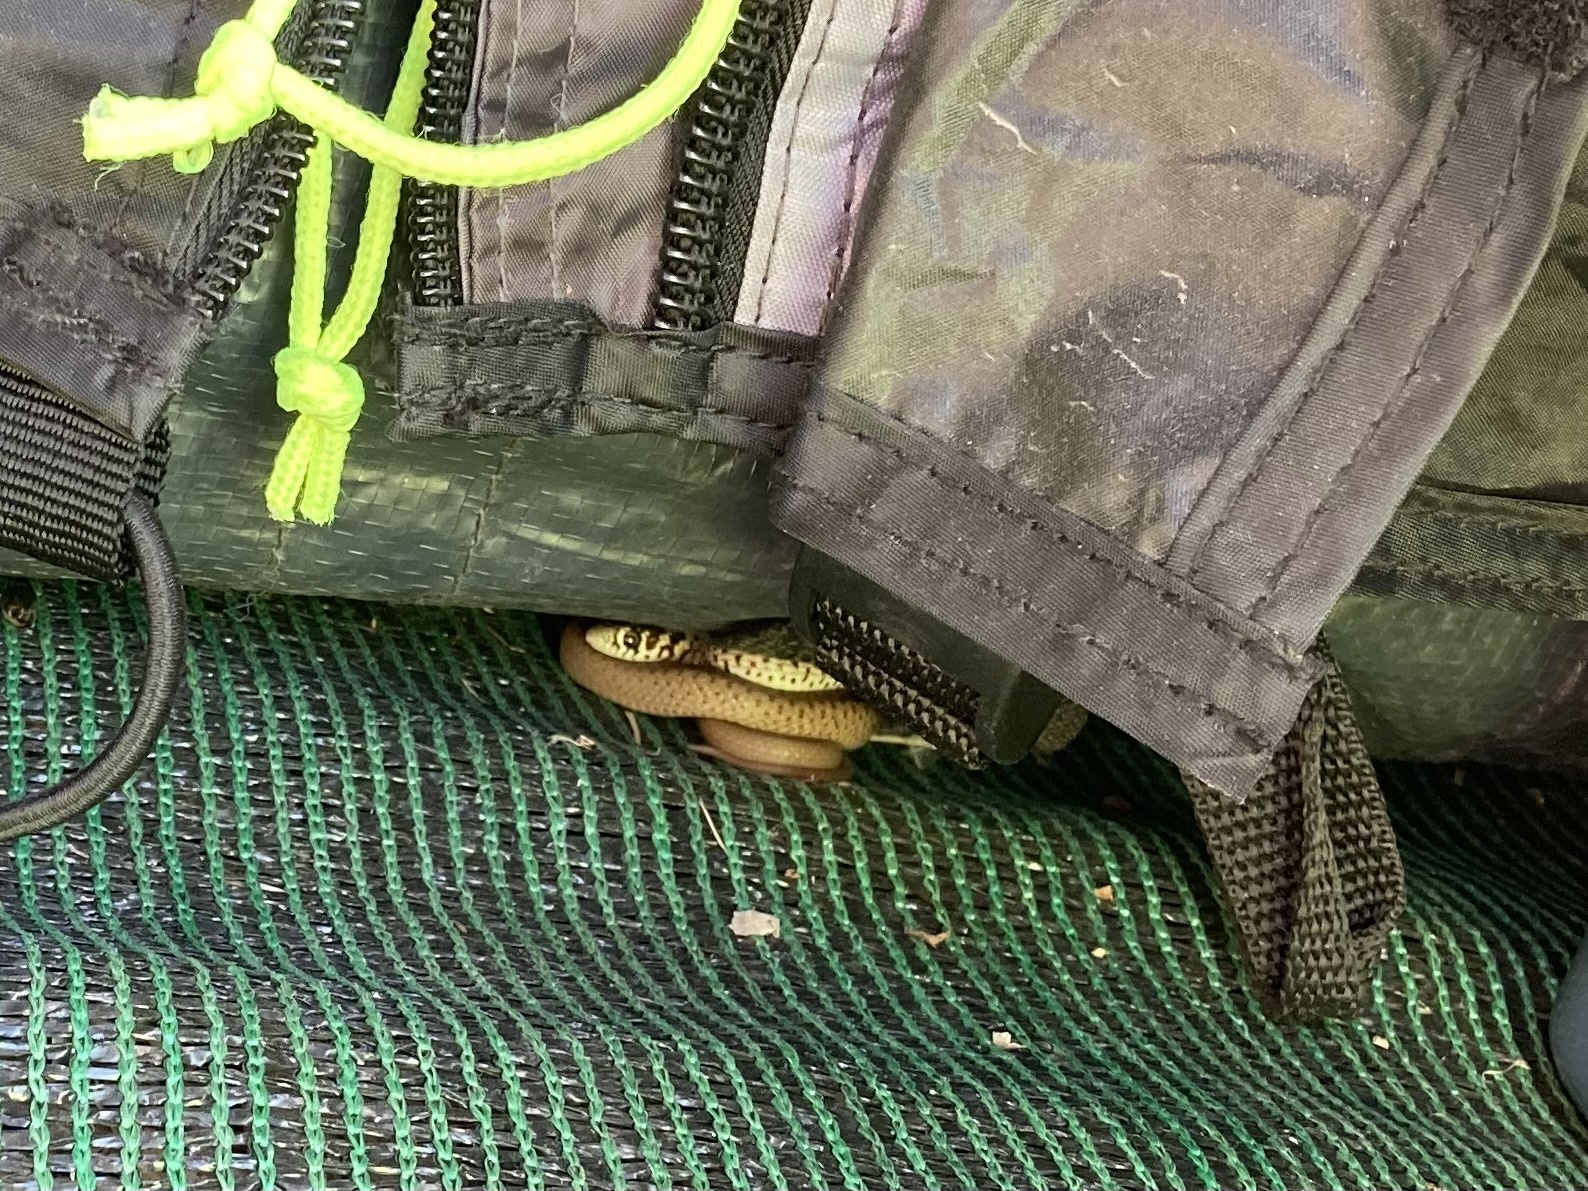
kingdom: Animalia
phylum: Chordata
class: Squamata
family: Colubridae
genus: Hierophis
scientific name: Hierophis gemonensis
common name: Balkan whip snake
